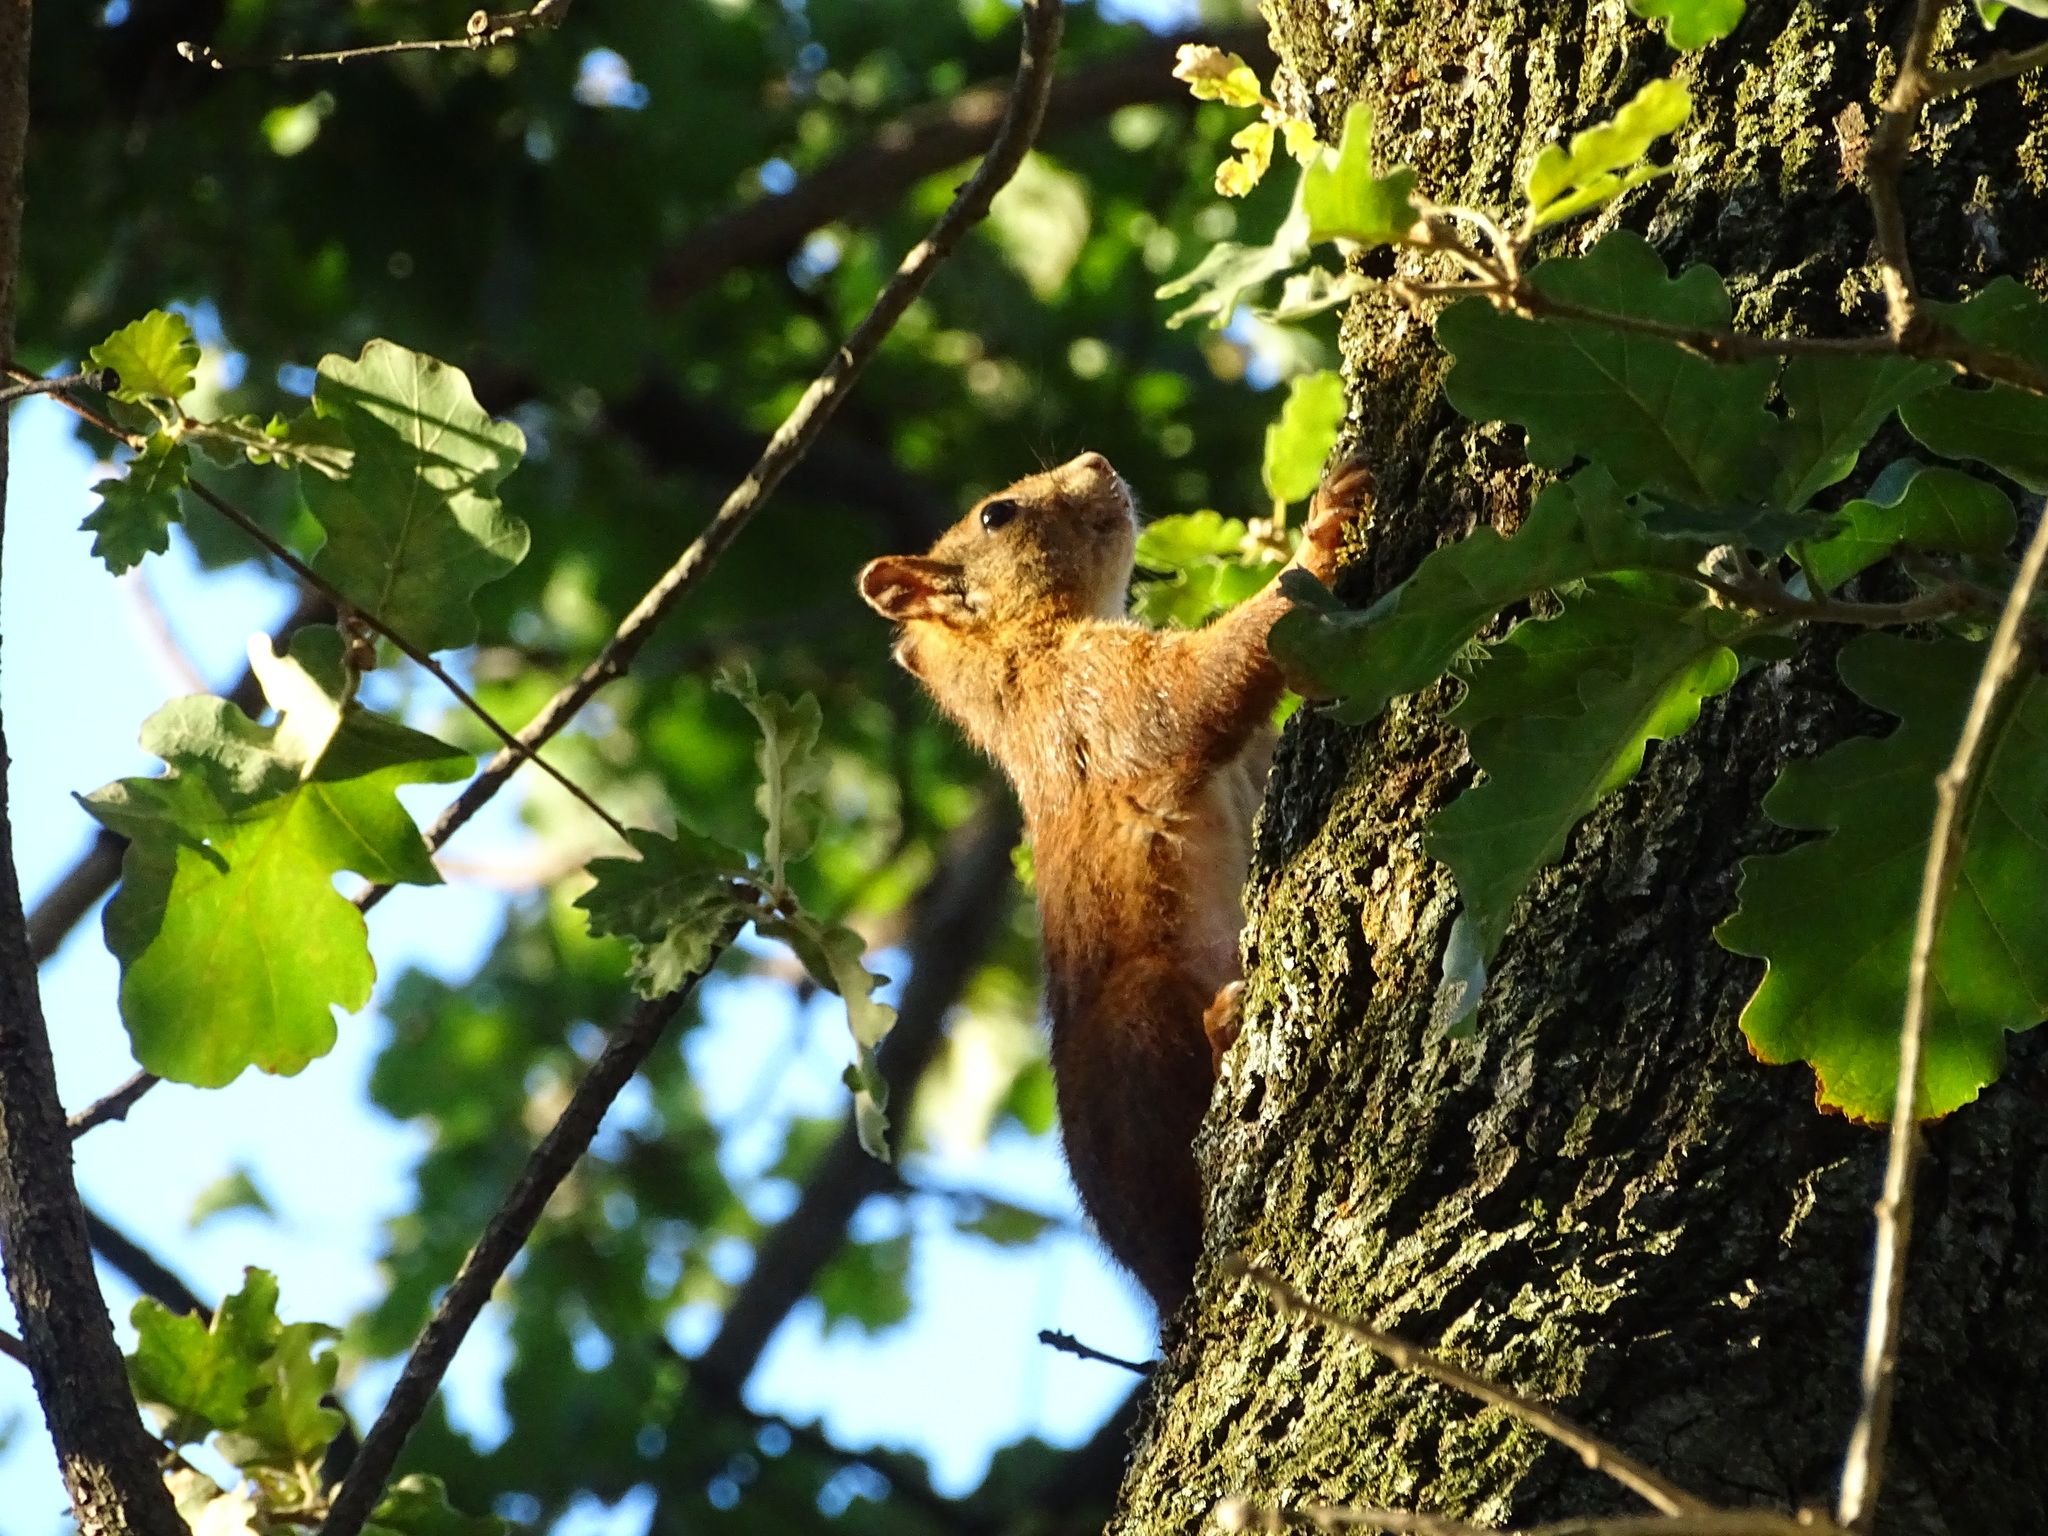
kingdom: Animalia
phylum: Chordata
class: Mammalia
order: Rodentia
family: Sciuridae
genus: Sciurus
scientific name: Sciurus vulgaris
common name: Eurasian red squirrel
